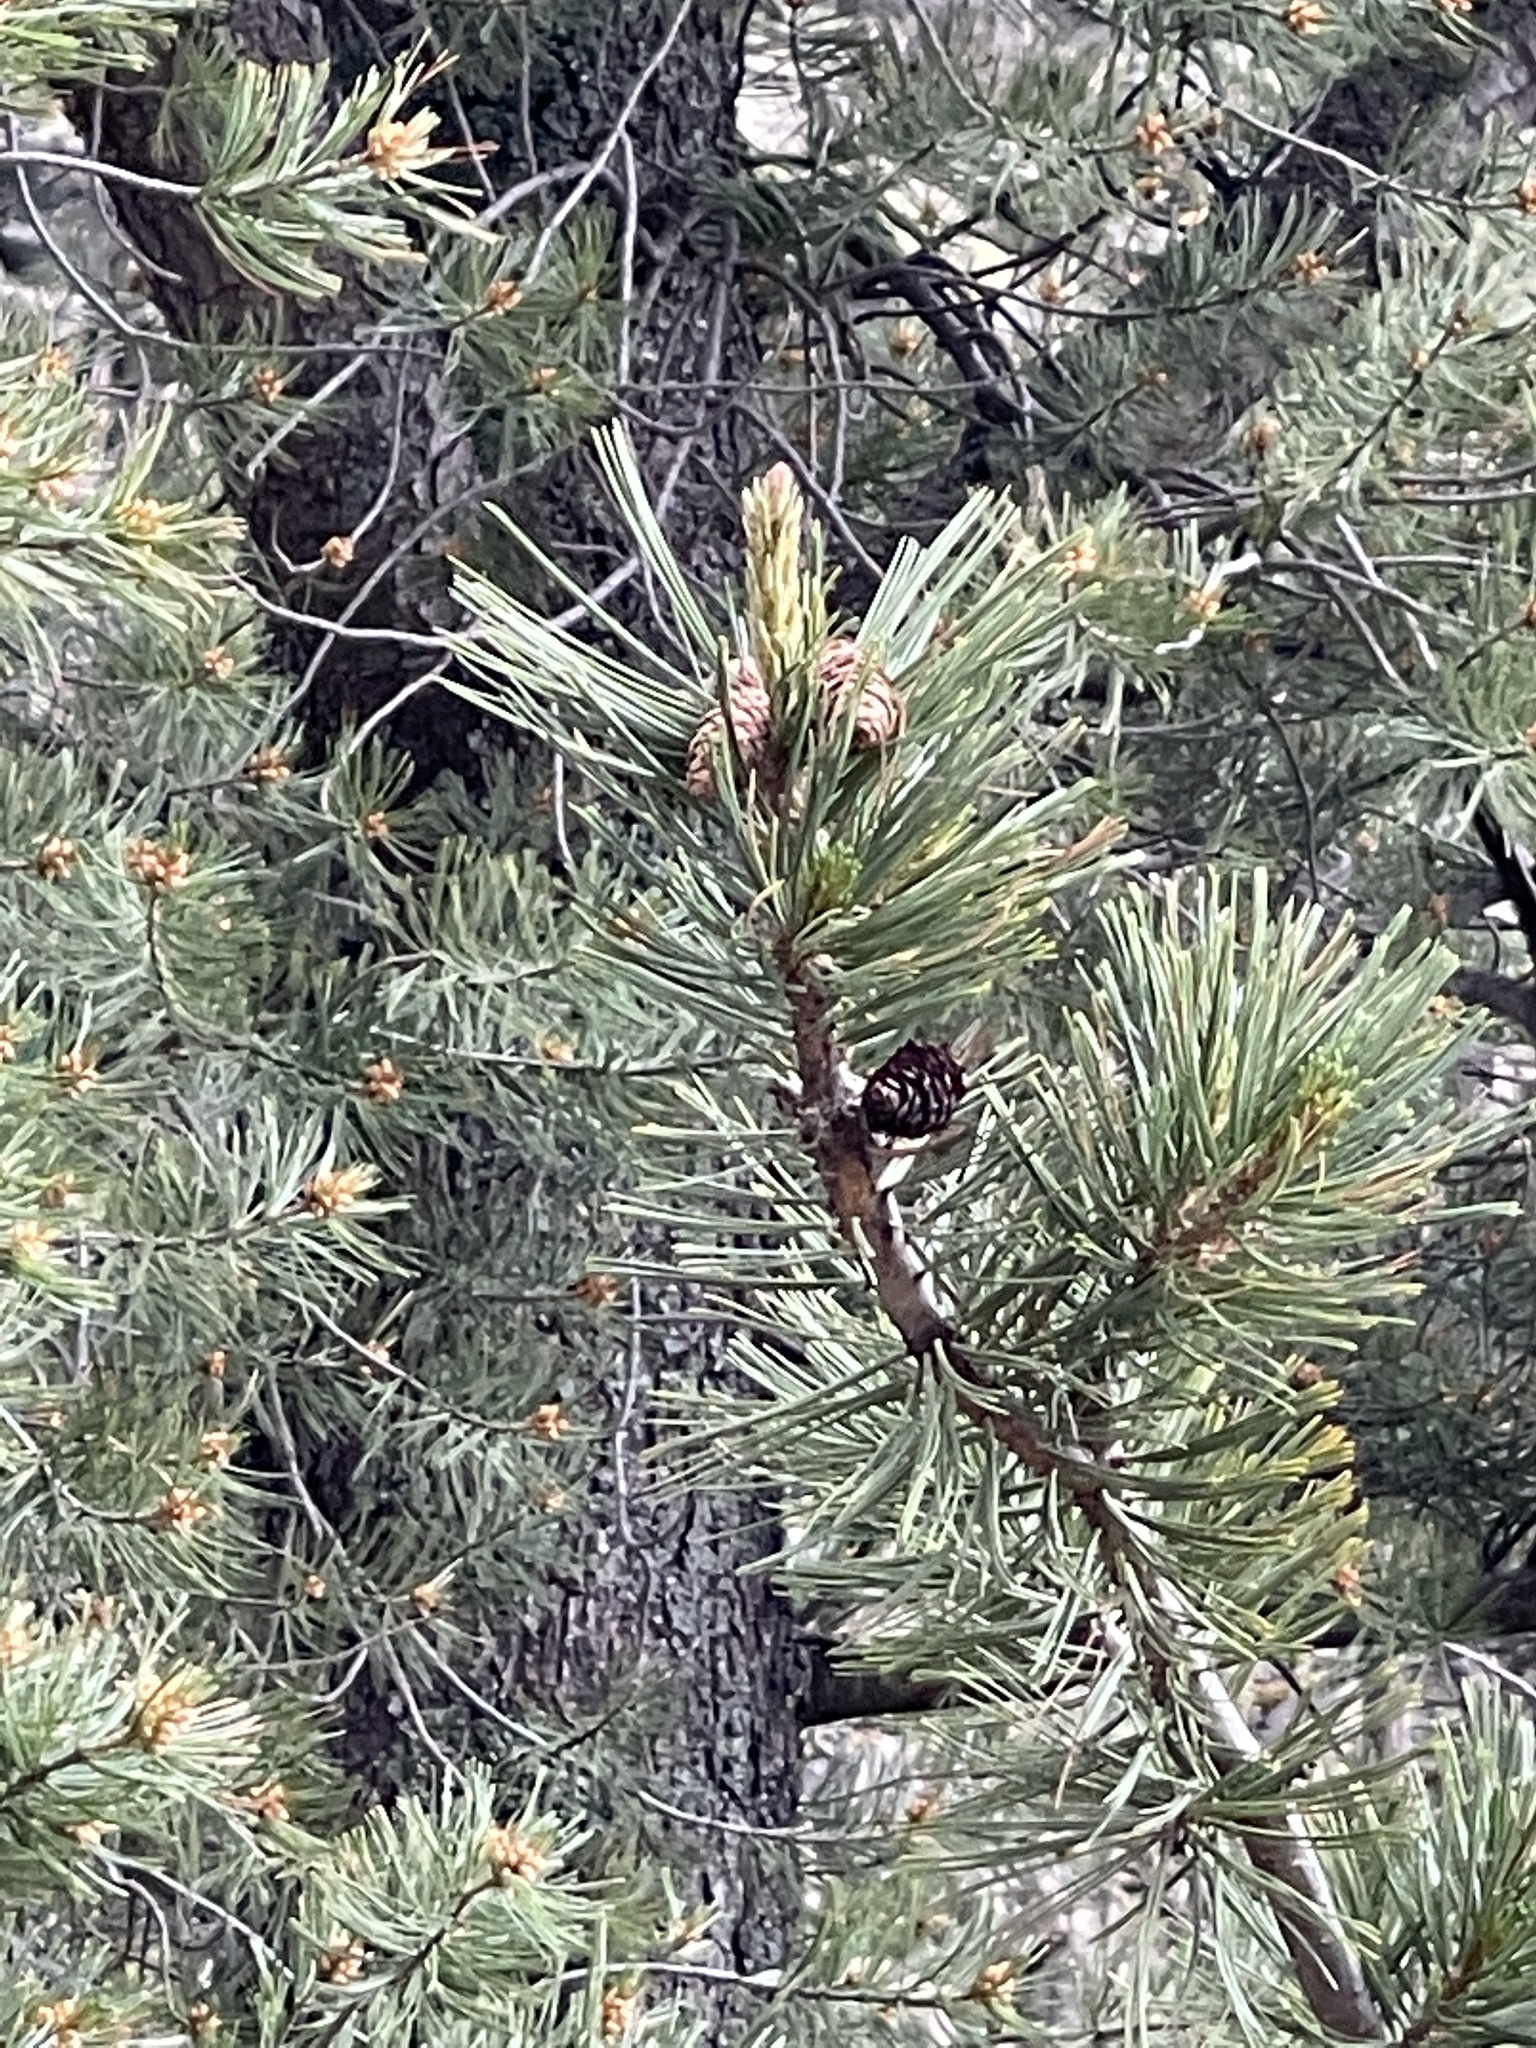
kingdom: Plantae
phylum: Tracheophyta
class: Pinopsida
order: Pinales
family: Pinaceae
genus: Pinus
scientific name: Pinus flexilis
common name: Limber pine
